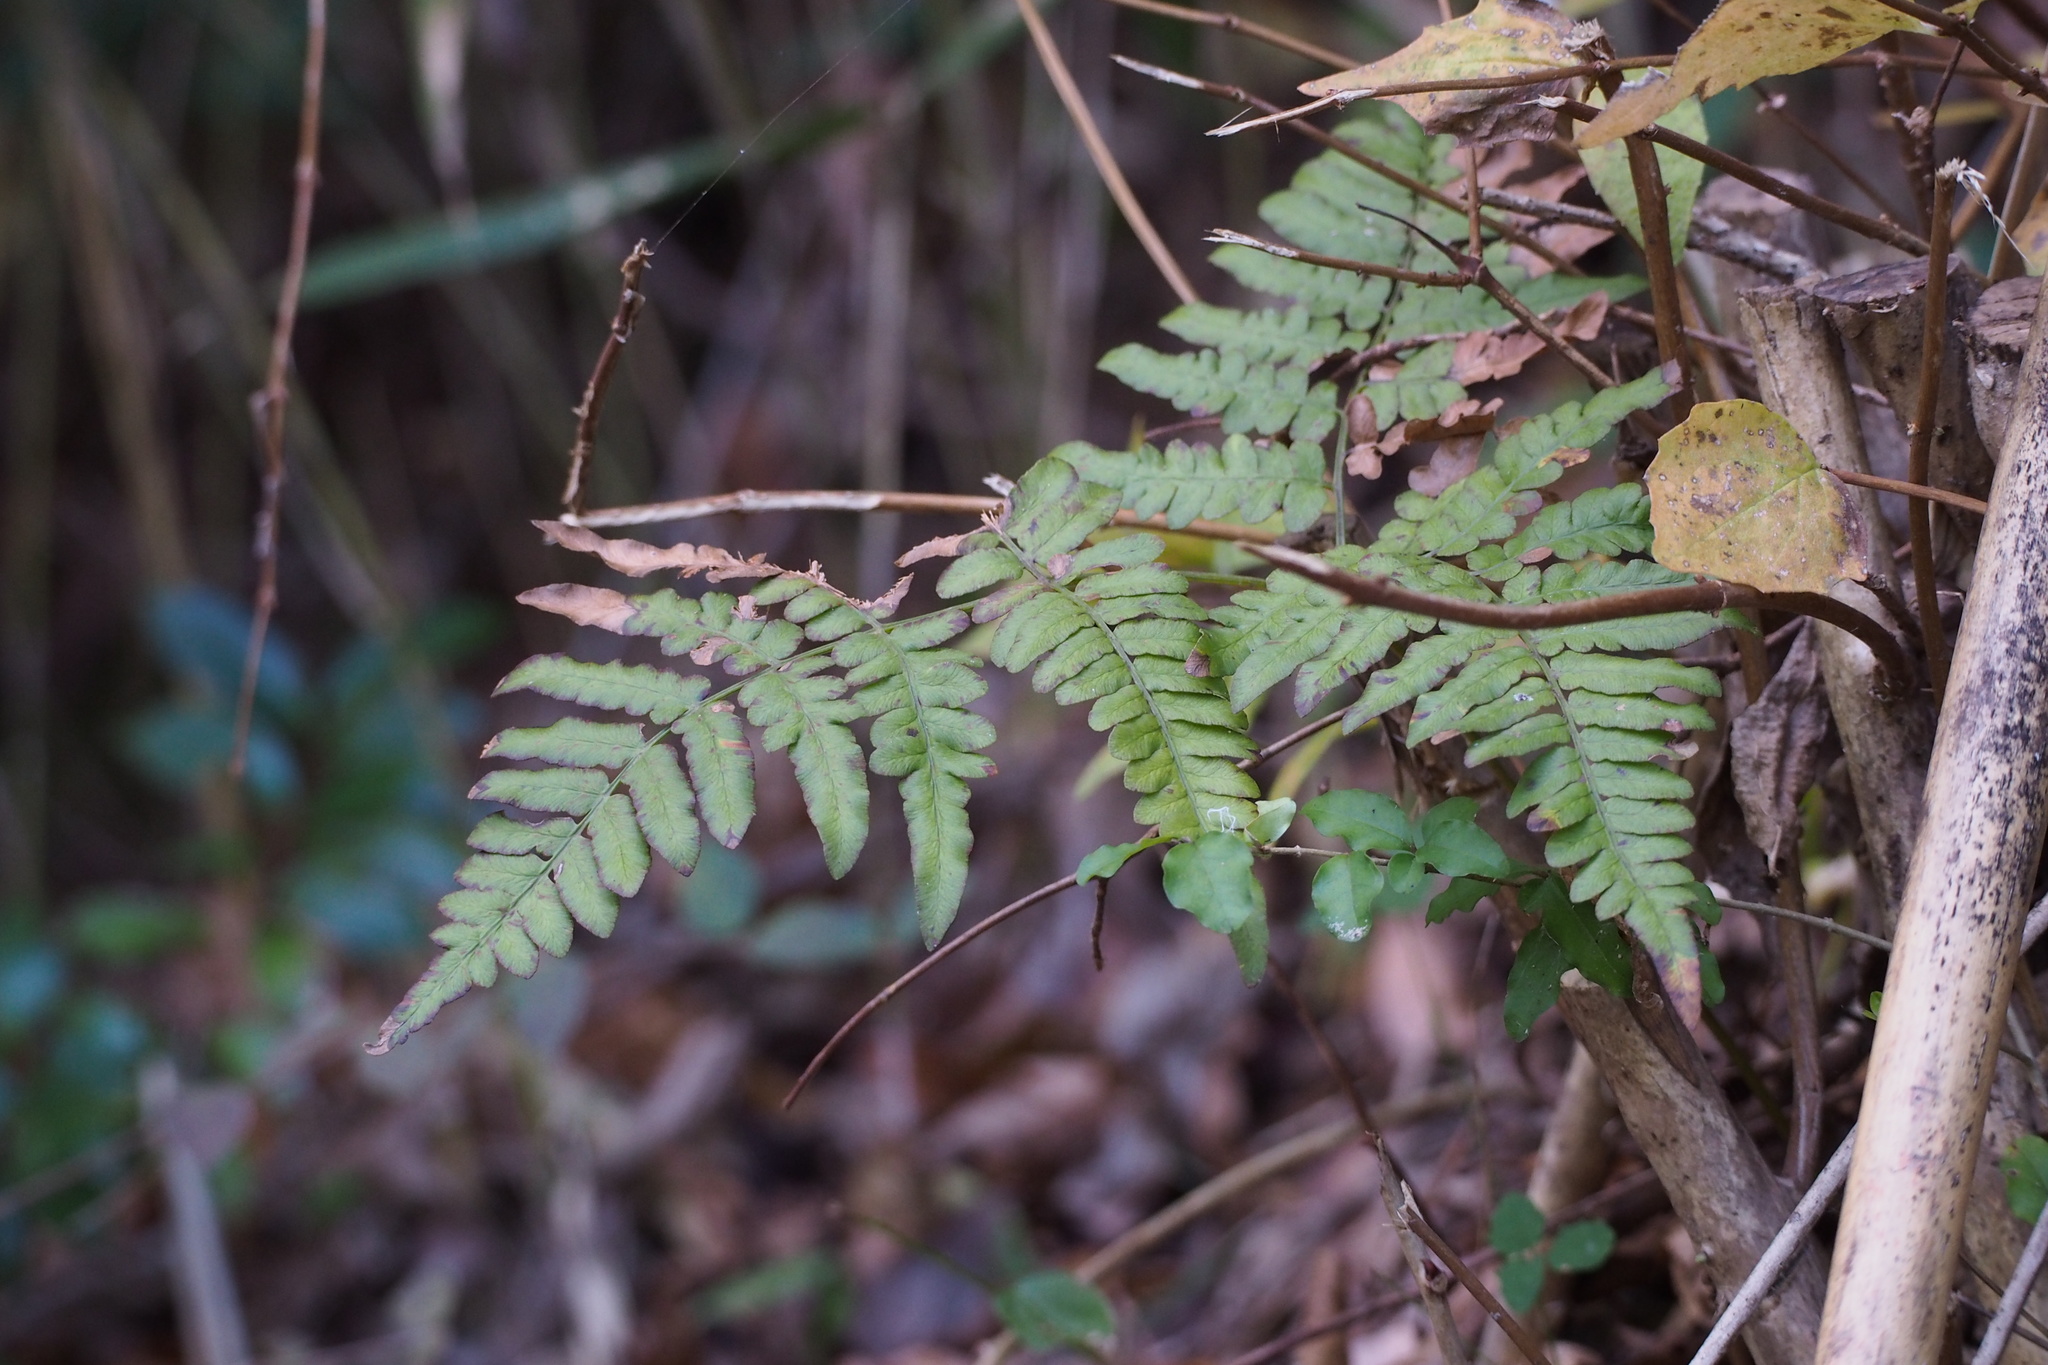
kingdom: Plantae
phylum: Tracheophyta
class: Polypodiopsida
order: Polypodiales
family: Dennstaedtiaceae
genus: Pteridium
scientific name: Pteridium aquilinum
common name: Bracken
